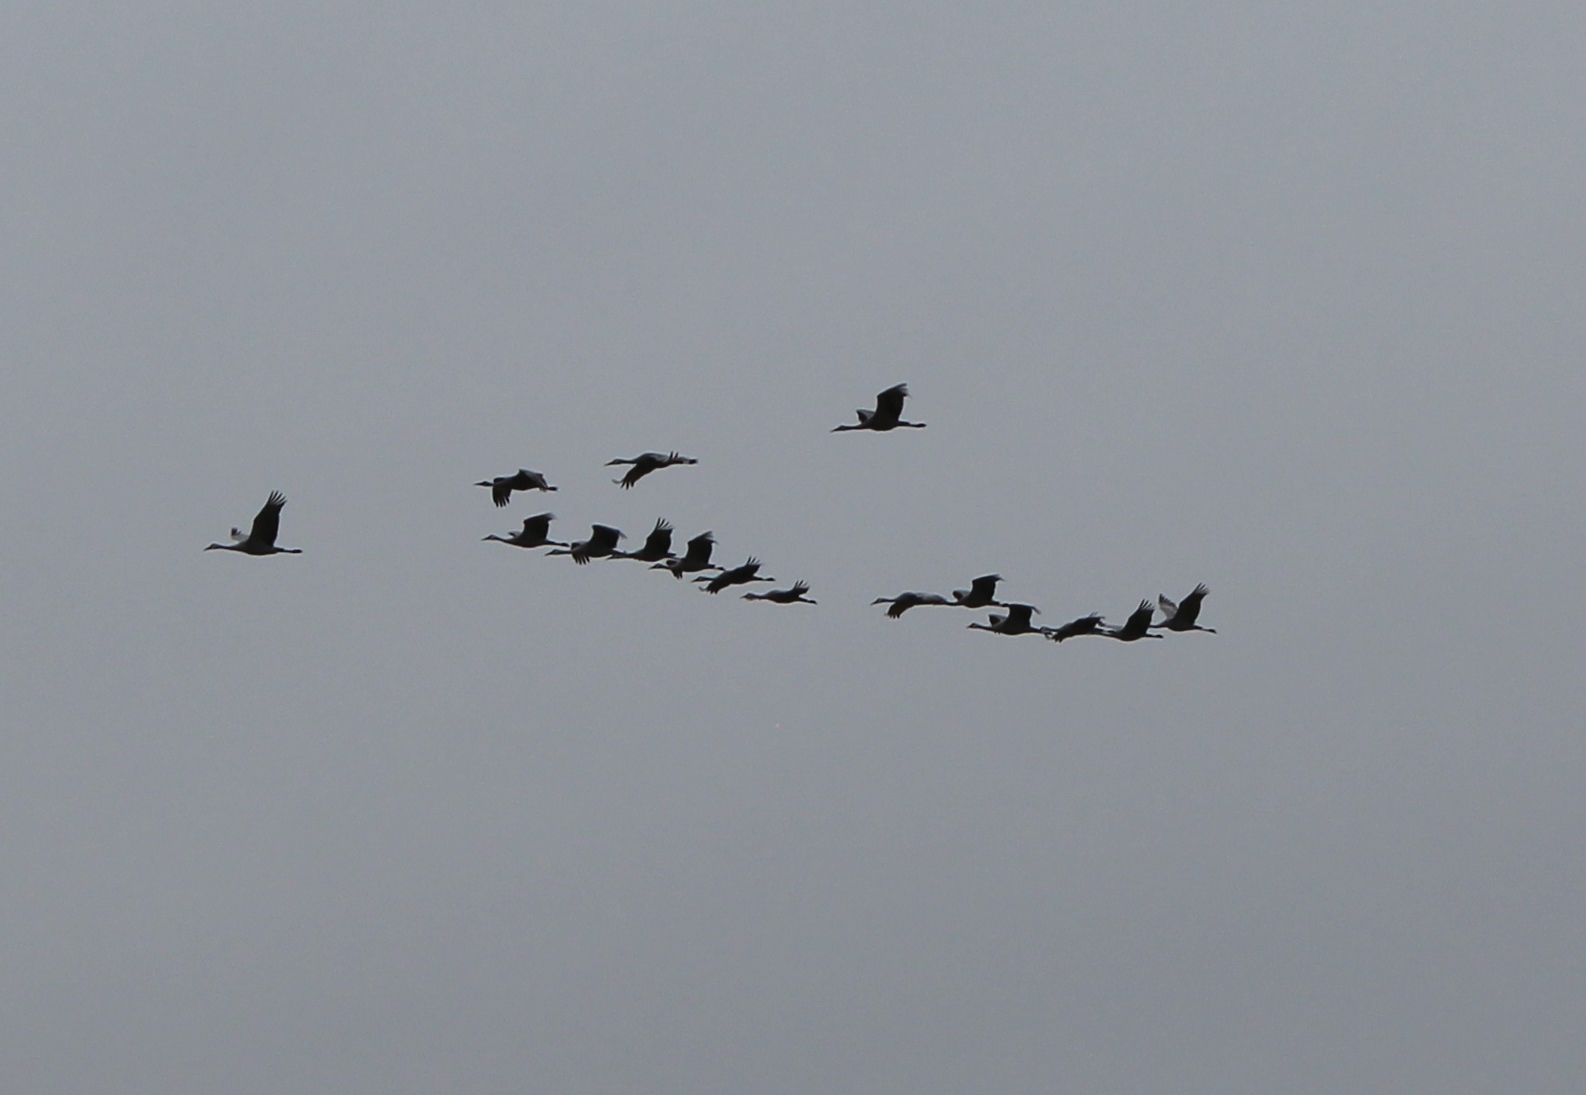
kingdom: Animalia
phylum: Chordata
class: Aves
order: Gruiformes
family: Gruidae
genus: Grus
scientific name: Grus canadensis
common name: Sandhill crane
